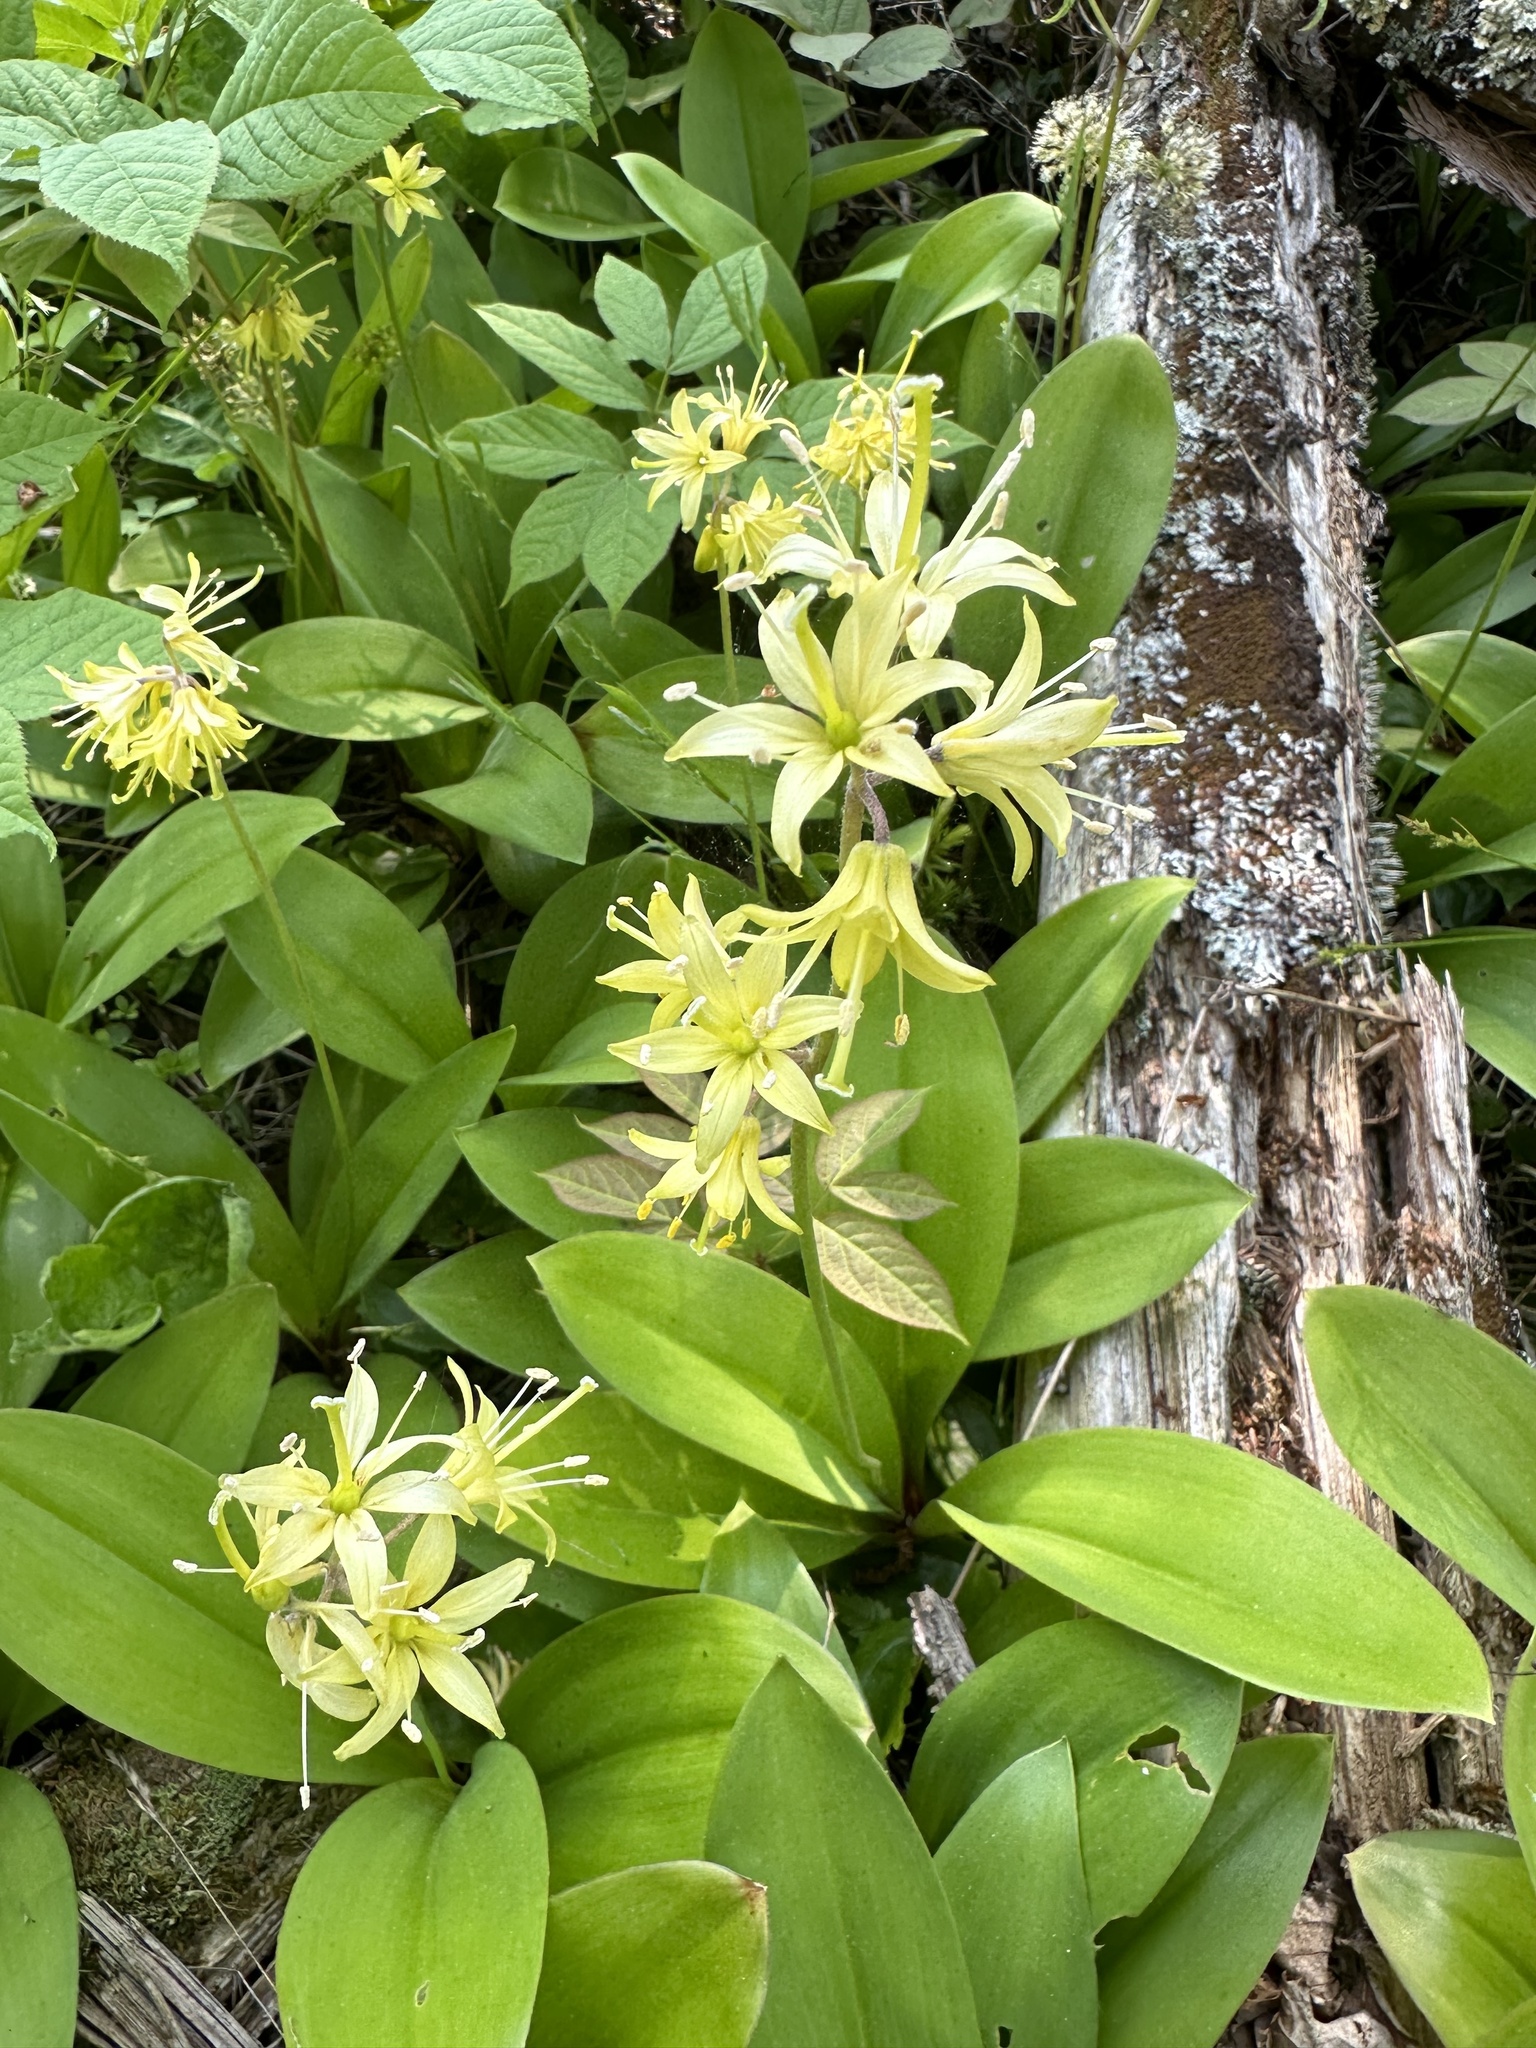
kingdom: Plantae
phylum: Tracheophyta
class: Liliopsida
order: Liliales
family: Liliaceae
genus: Clintonia
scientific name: Clintonia borealis
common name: Yellow clintonia
